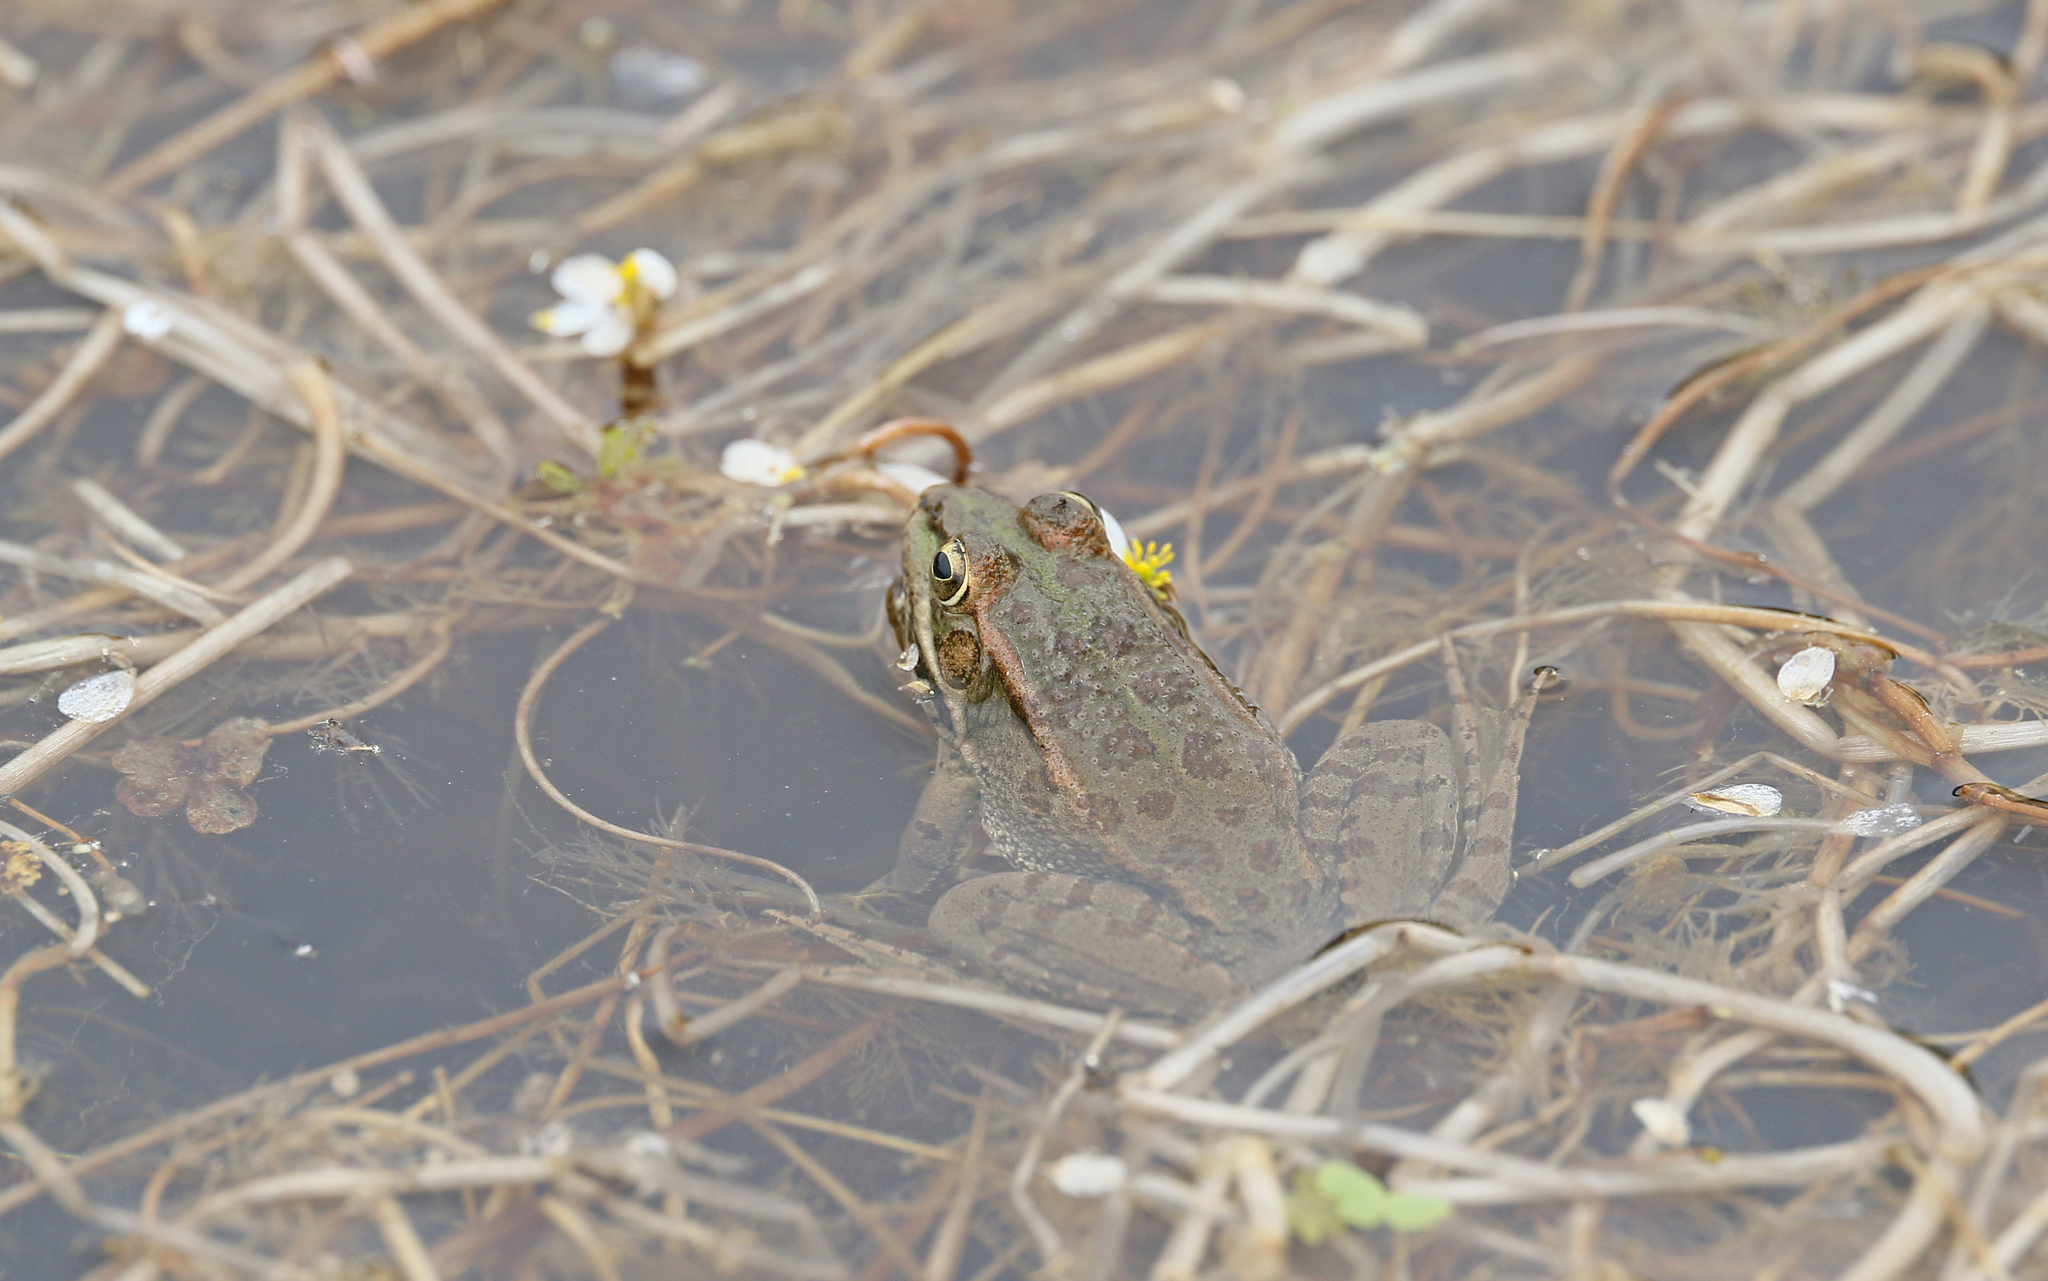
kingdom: Animalia
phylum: Chordata
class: Amphibia
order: Anura
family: Ranidae
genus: Pelophylax
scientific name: Pelophylax perezi
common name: Perez's frog
